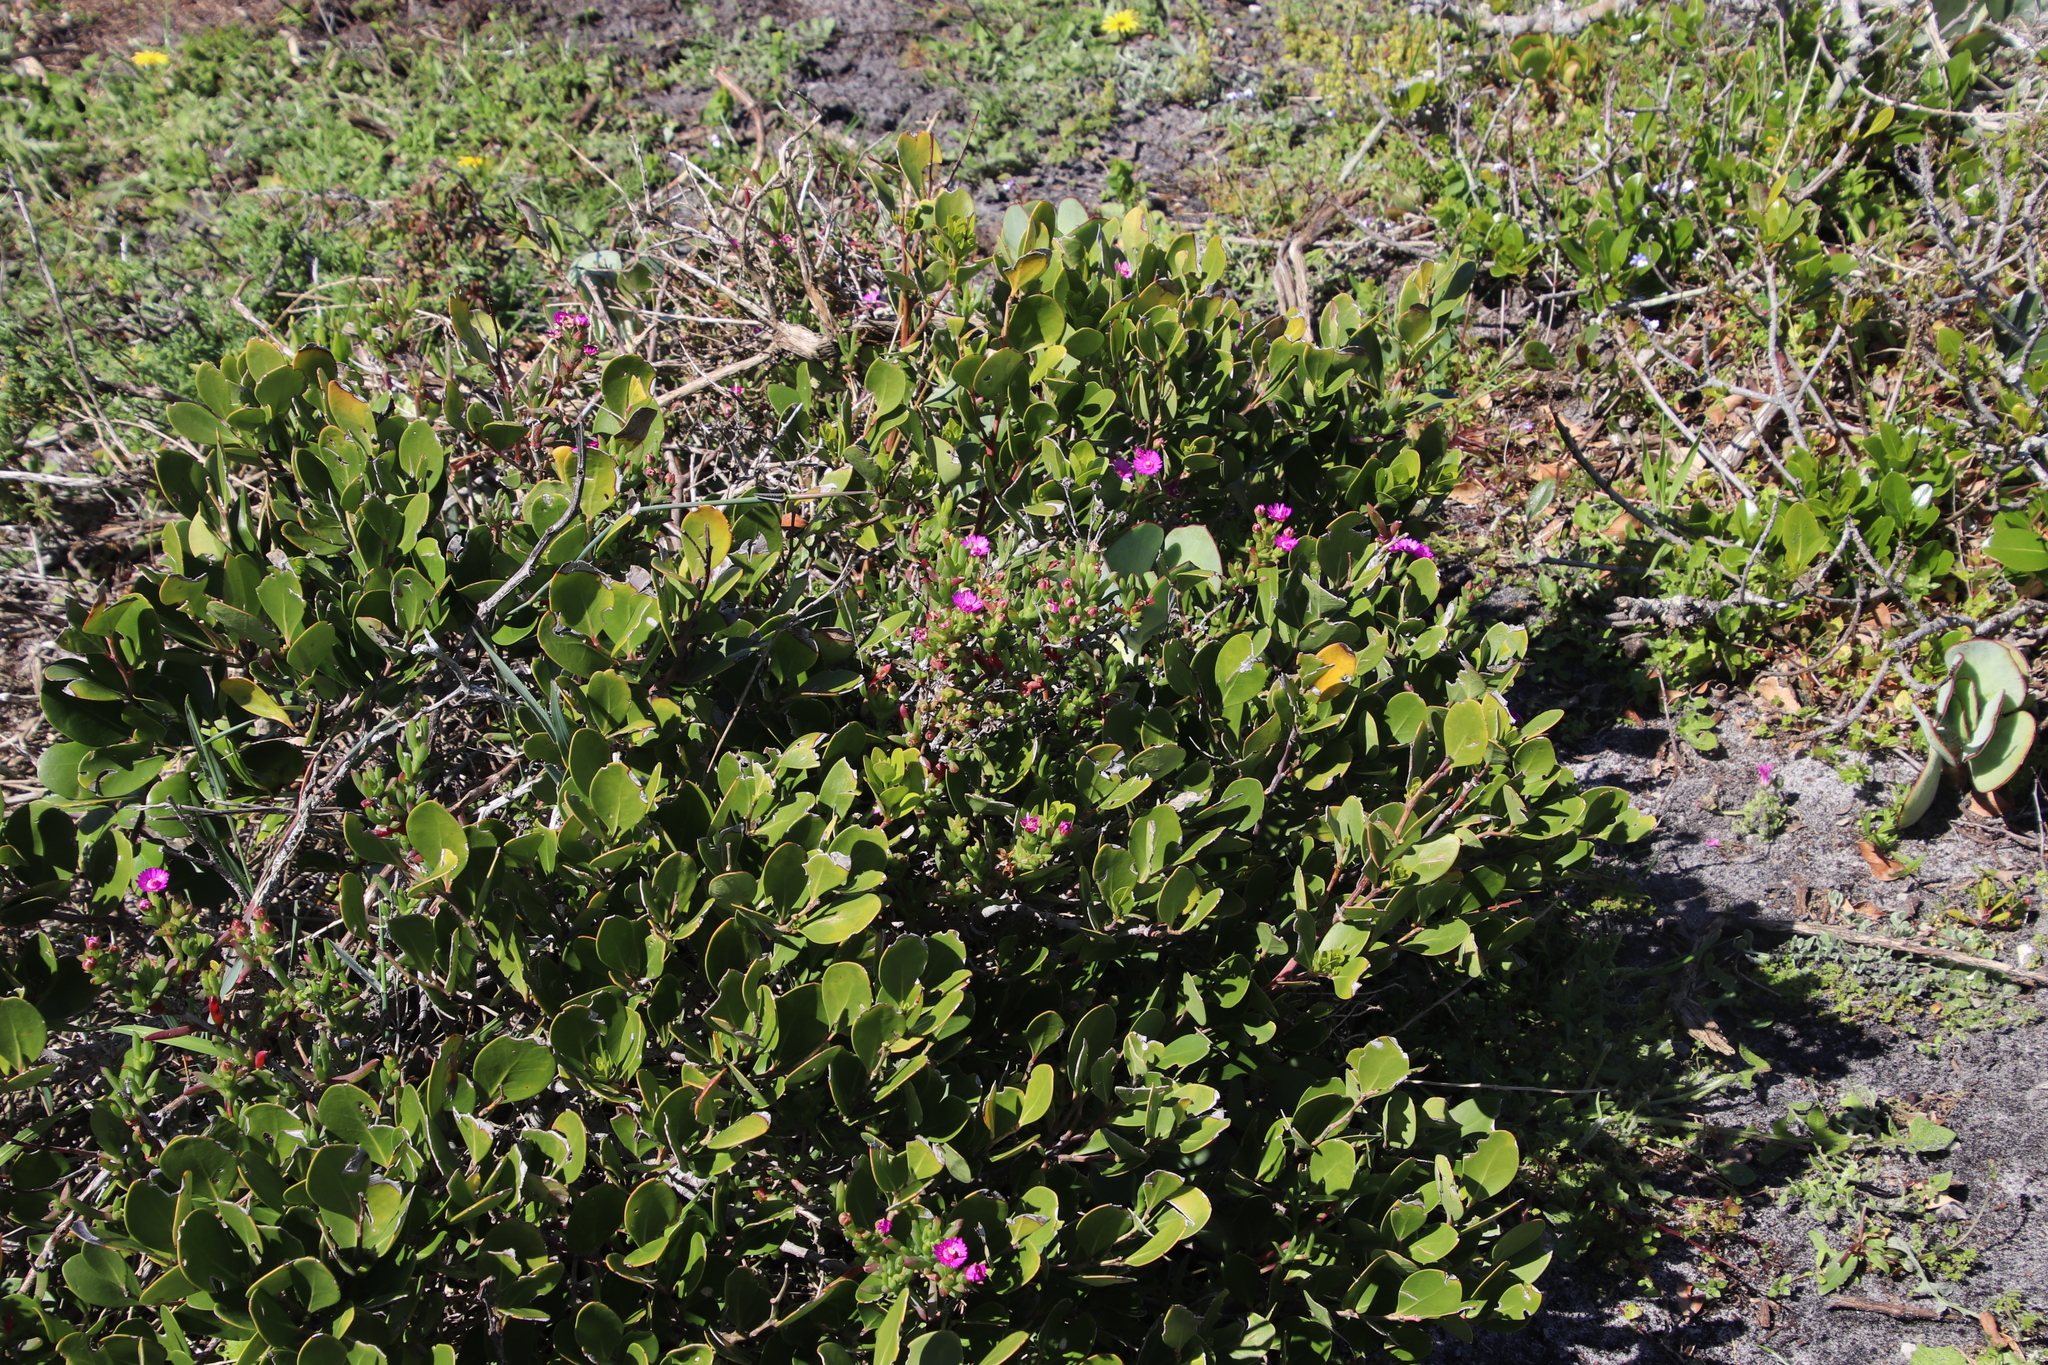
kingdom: Plantae
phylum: Tracheophyta
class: Magnoliopsida
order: Caryophyllales
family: Aizoaceae
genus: Ruschia
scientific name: Ruschia macowanii
